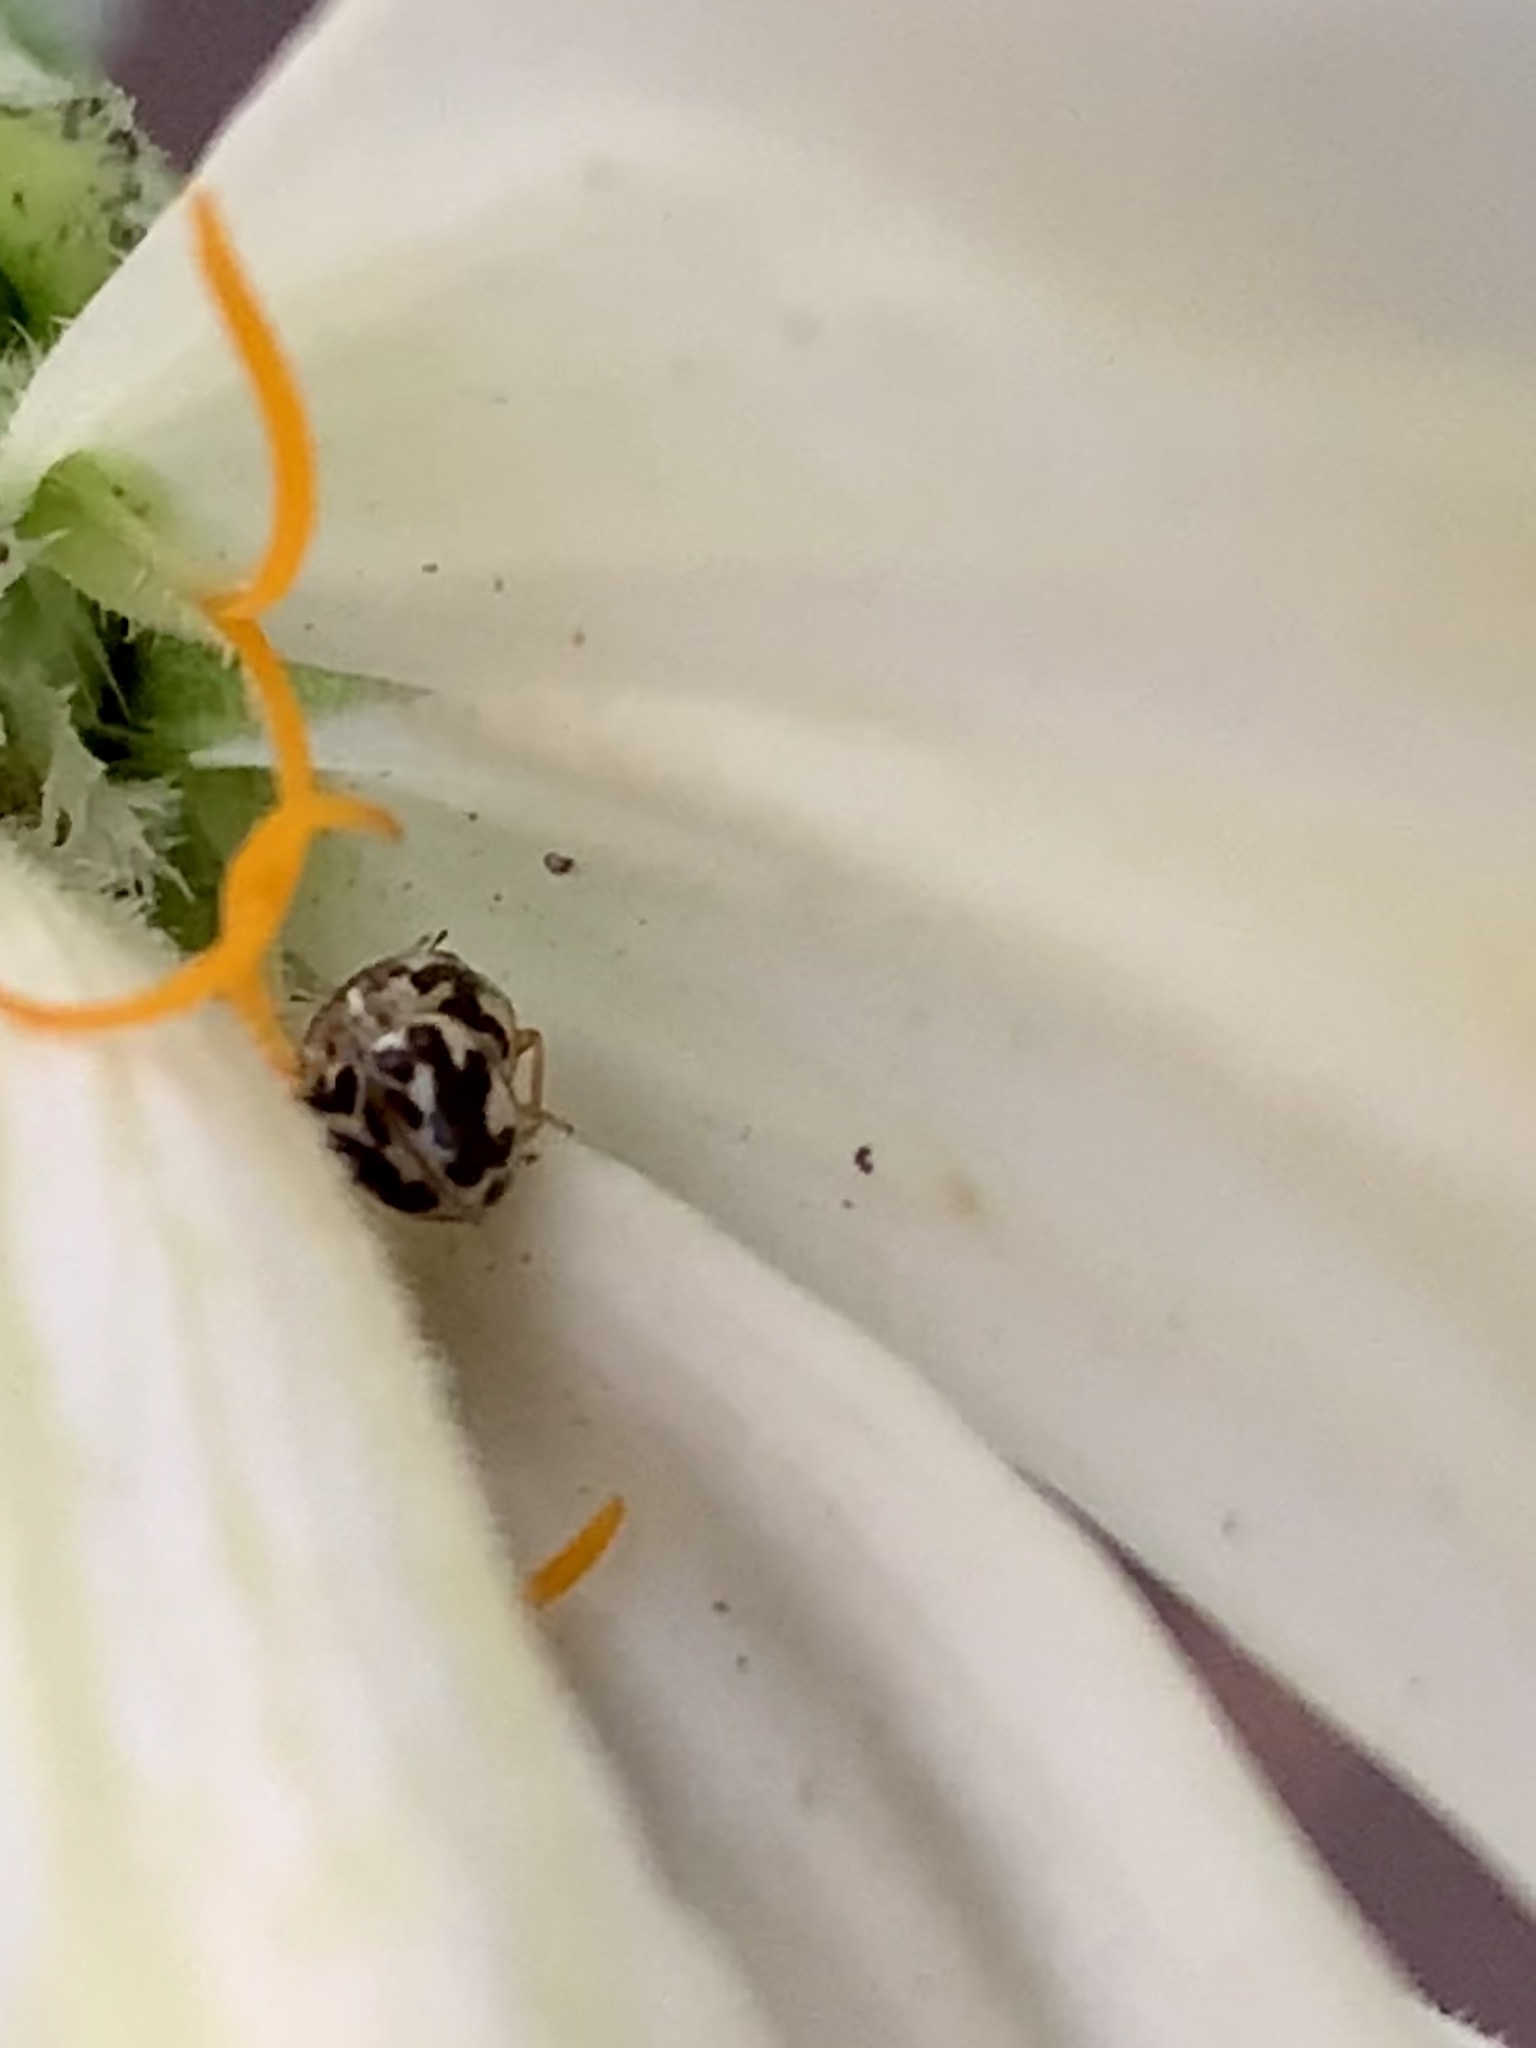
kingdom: Animalia
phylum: Arthropoda
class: Insecta
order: Coleoptera
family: Coccinellidae
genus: Psyllobora
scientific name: Psyllobora vigintimaculata
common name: Ladybird beetle
